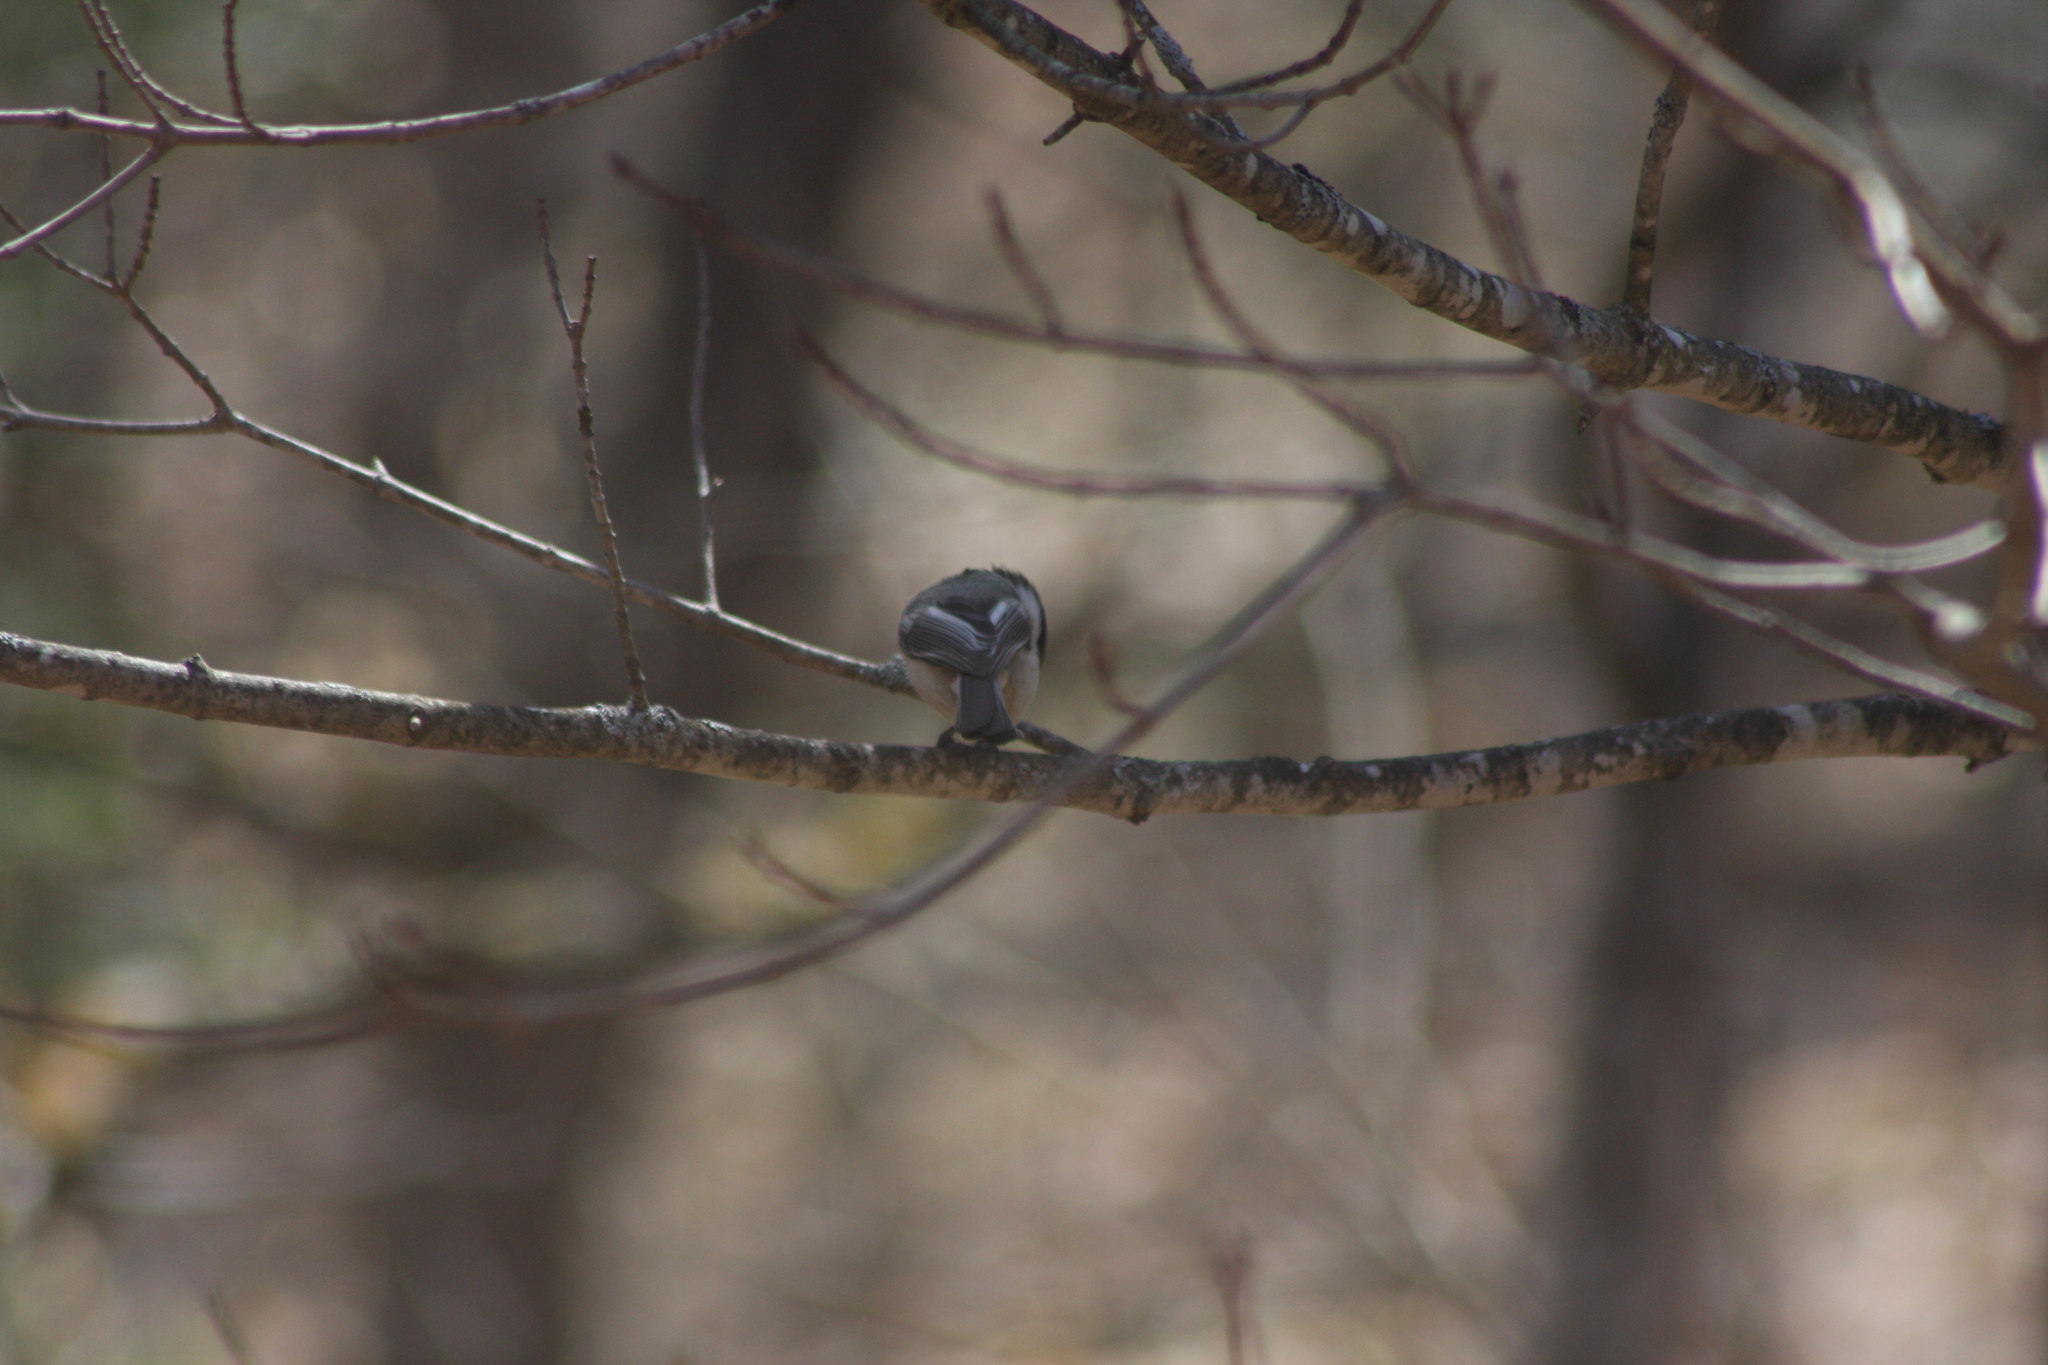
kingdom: Animalia
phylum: Chordata
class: Aves
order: Passeriformes
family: Paridae
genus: Poecile
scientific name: Poecile atricapillus
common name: Black-capped chickadee
